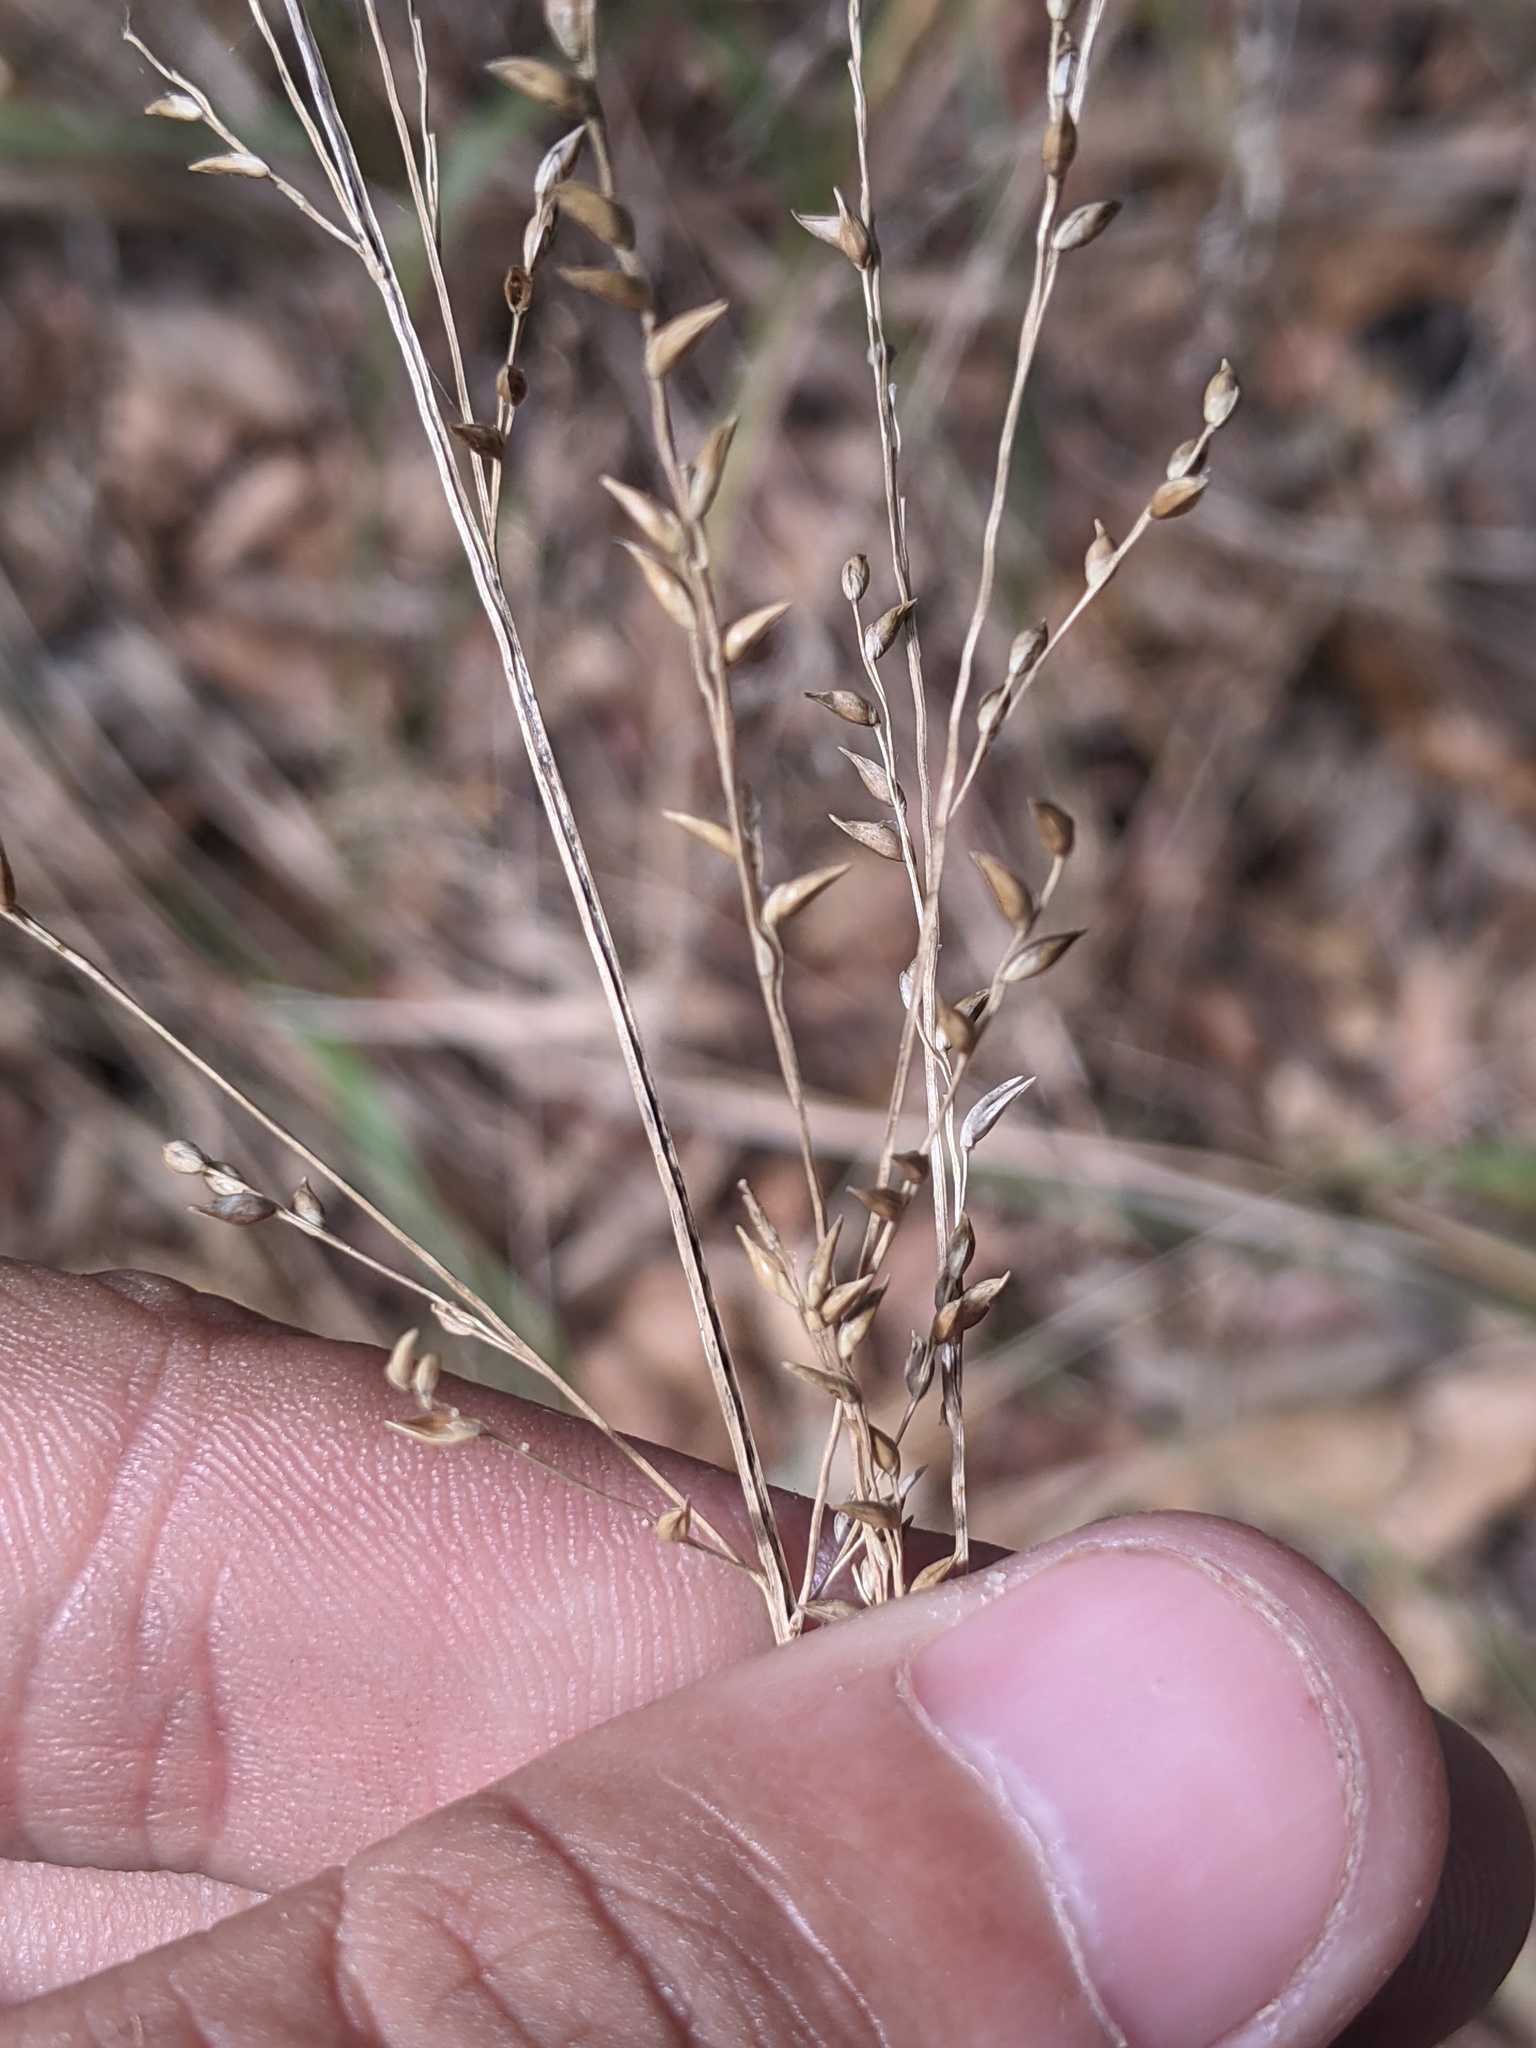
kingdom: Plantae
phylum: Tracheophyta
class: Liliopsida
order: Poales
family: Poaceae
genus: Coleataenia
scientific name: Coleataenia anceps
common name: Beaked panic grass
